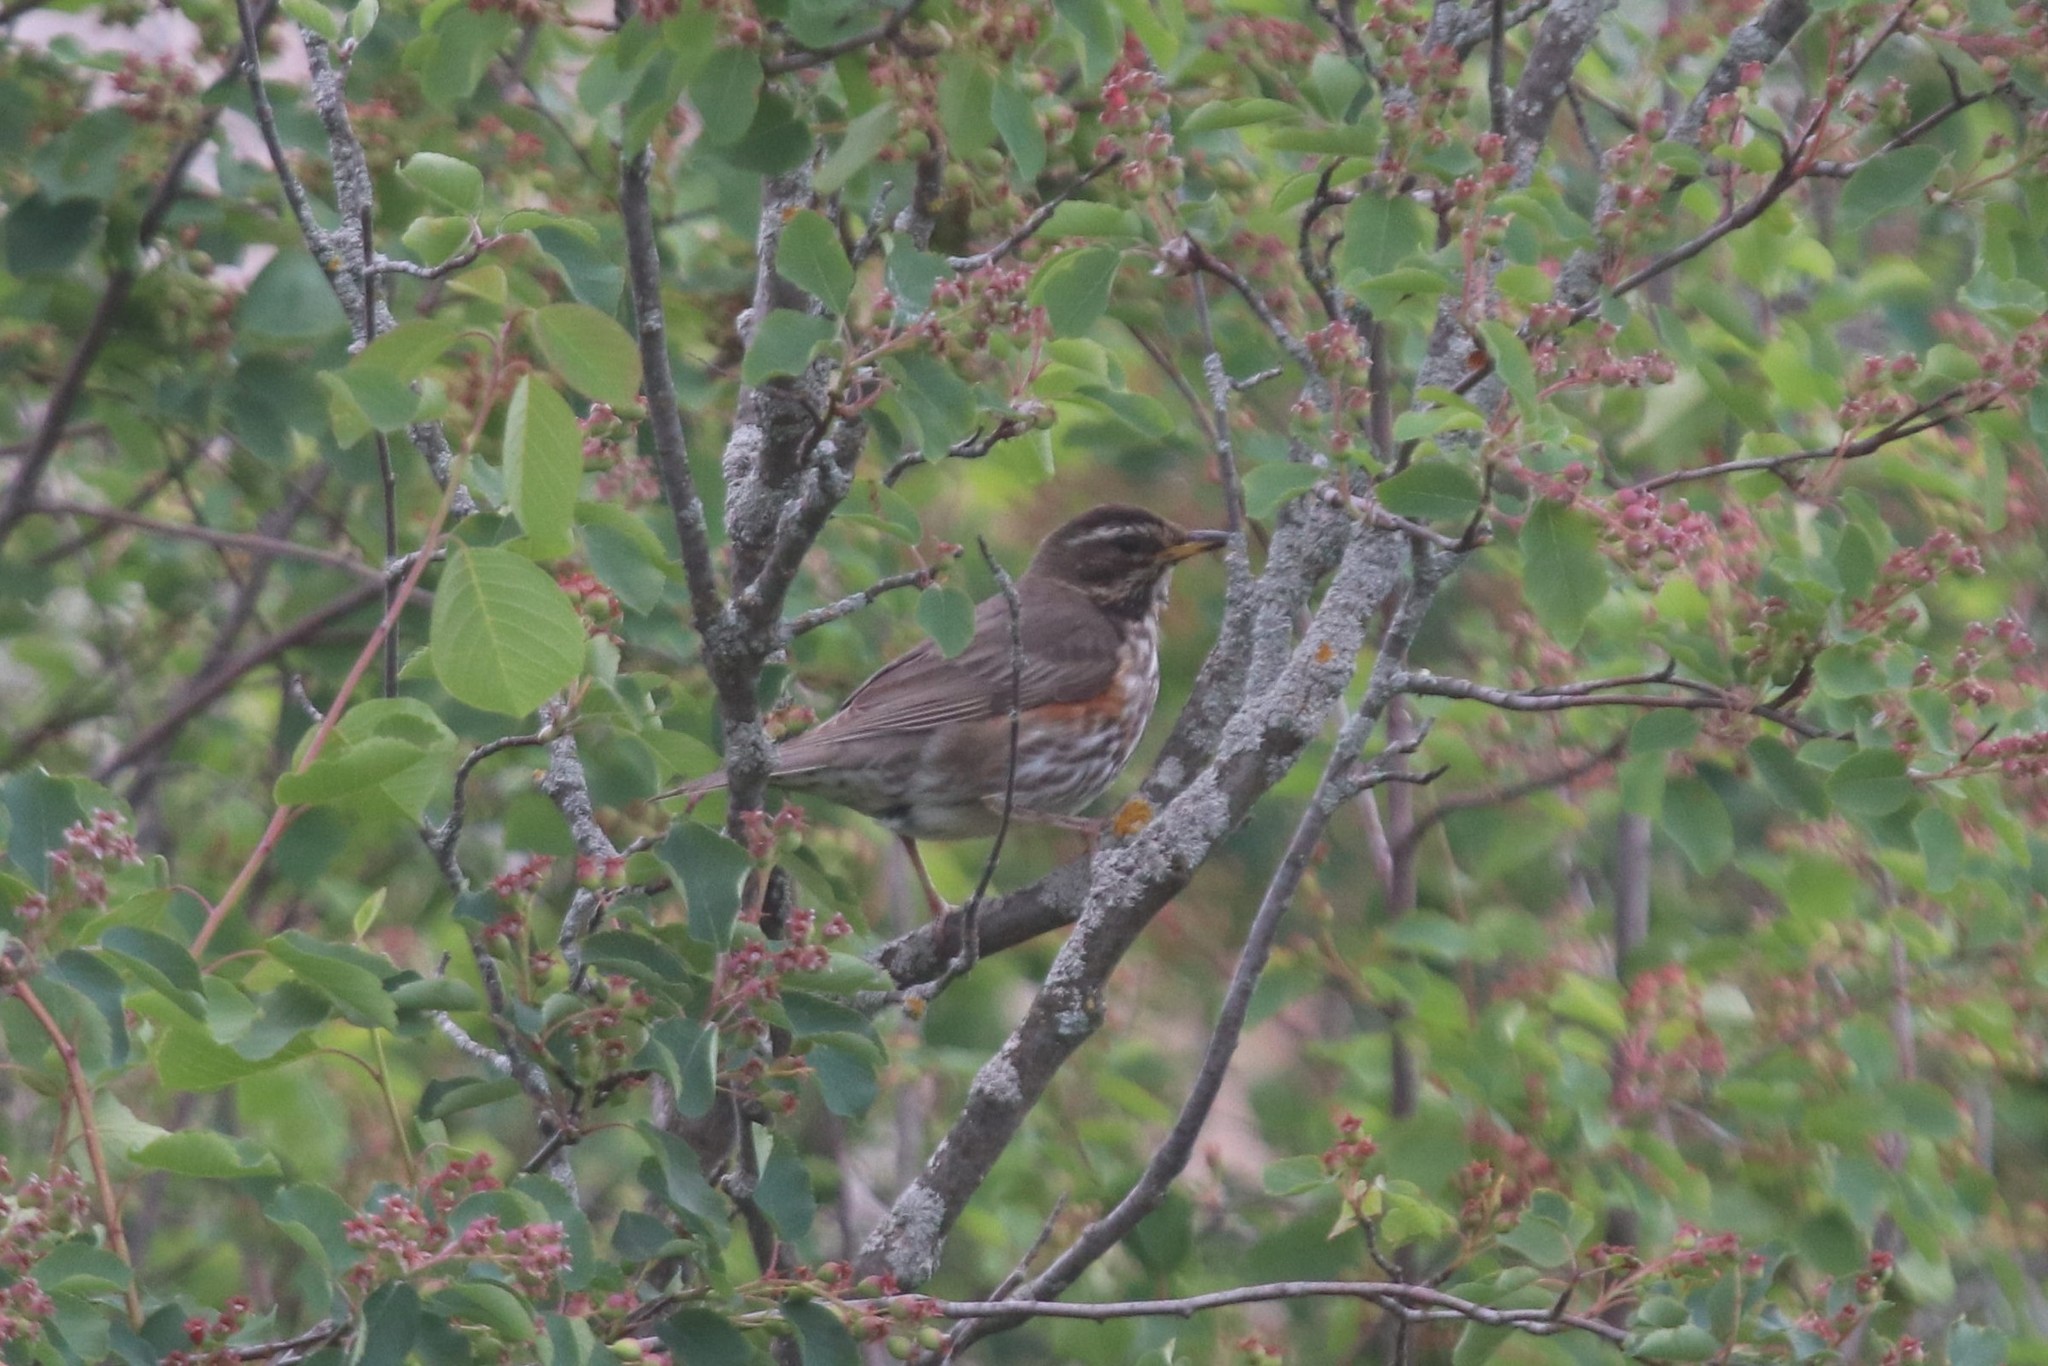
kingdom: Animalia
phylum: Chordata
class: Aves
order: Passeriformes
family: Turdidae
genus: Turdus
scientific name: Turdus iliacus
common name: Redwing
